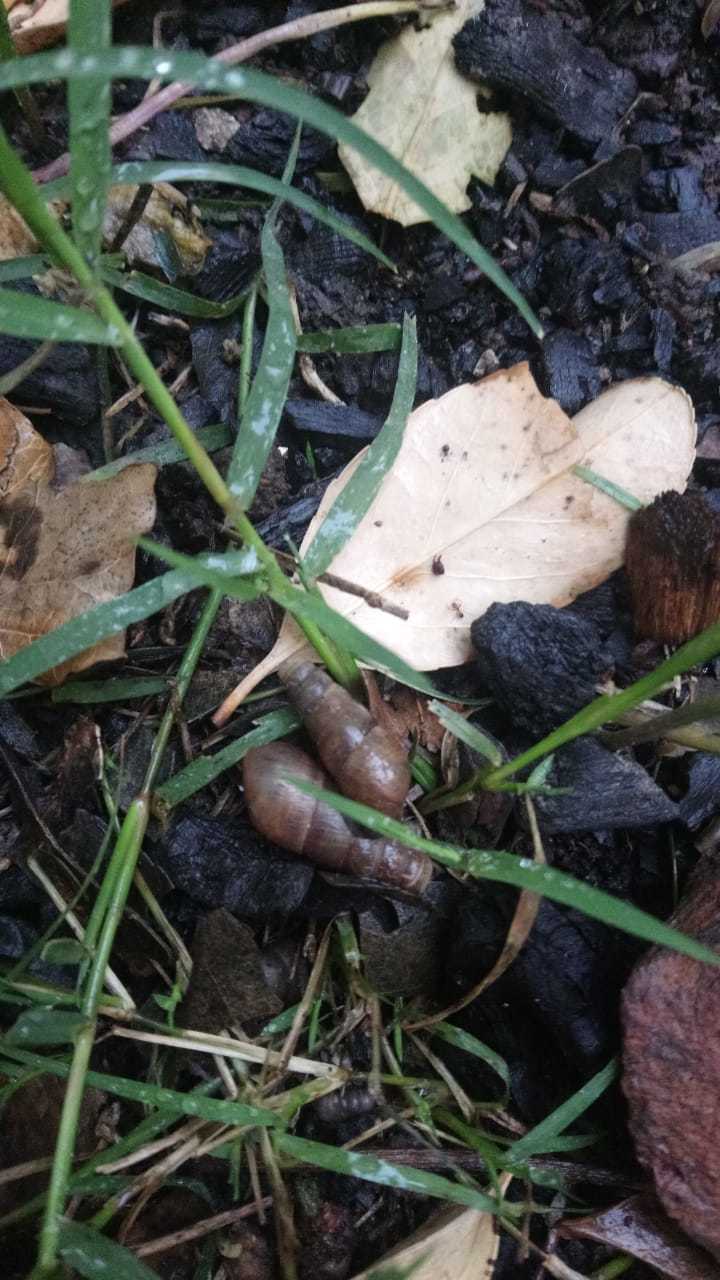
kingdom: Animalia
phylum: Mollusca
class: Gastropoda
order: Stylommatophora
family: Achatinidae
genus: Rumina
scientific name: Rumina decollata
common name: Decollate snail
